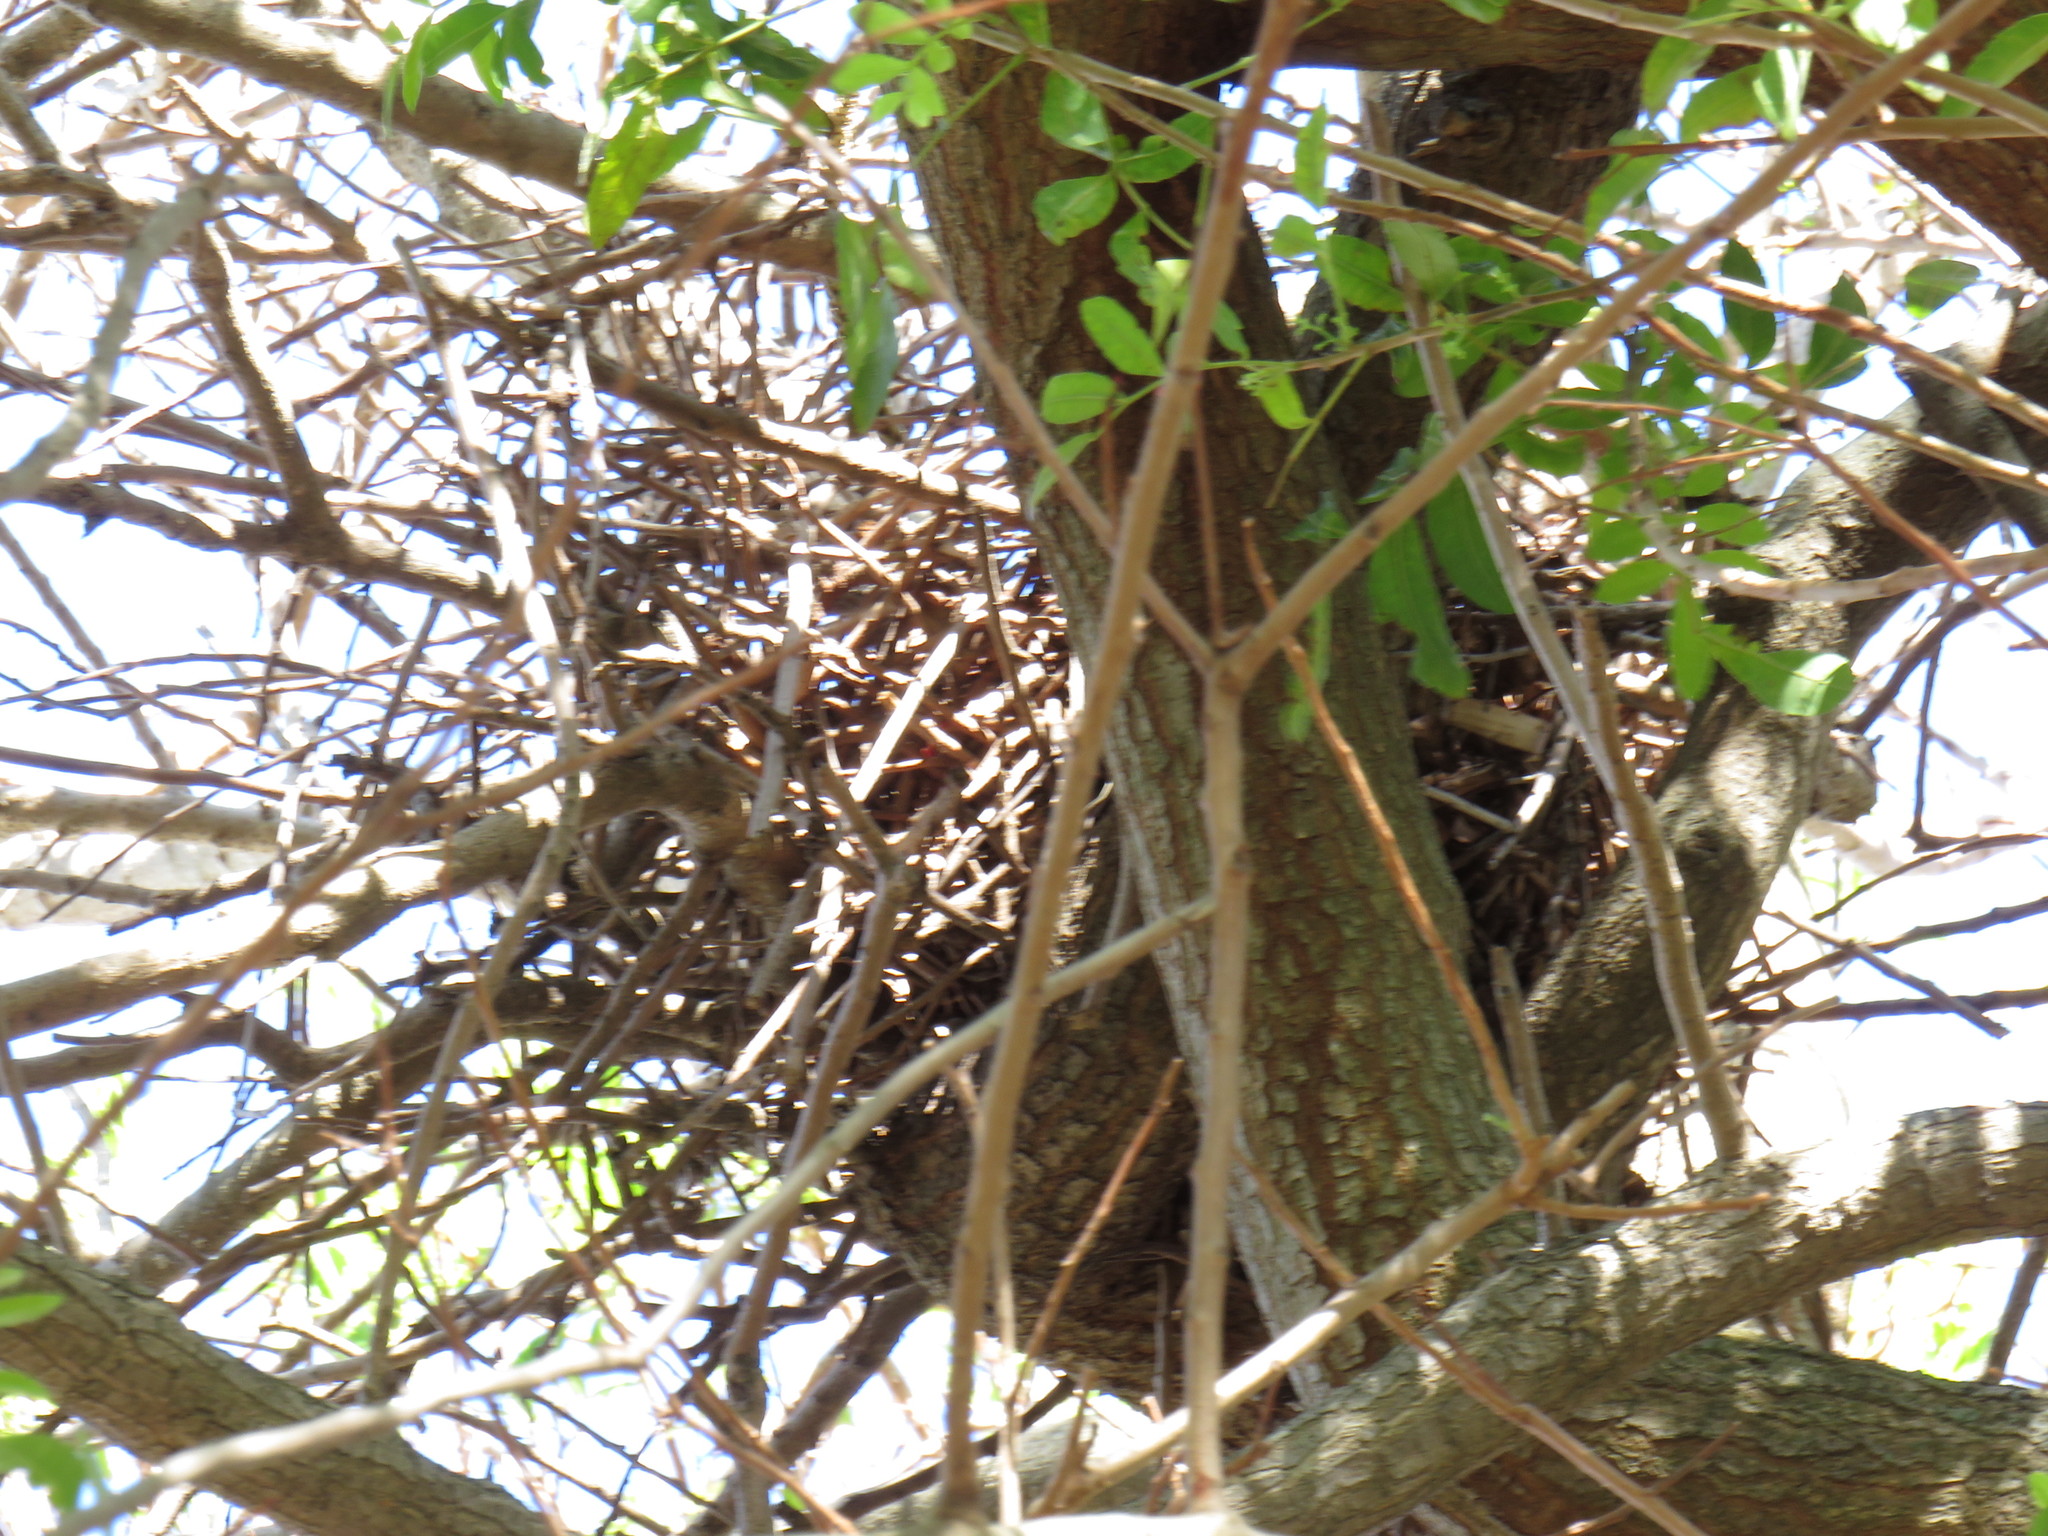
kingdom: Animalia
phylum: Chordata
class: Mammalia
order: Rodentia
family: Sciuridae
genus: Sciurus
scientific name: Sciurus carolinensis
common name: Eastern gray squirrel
